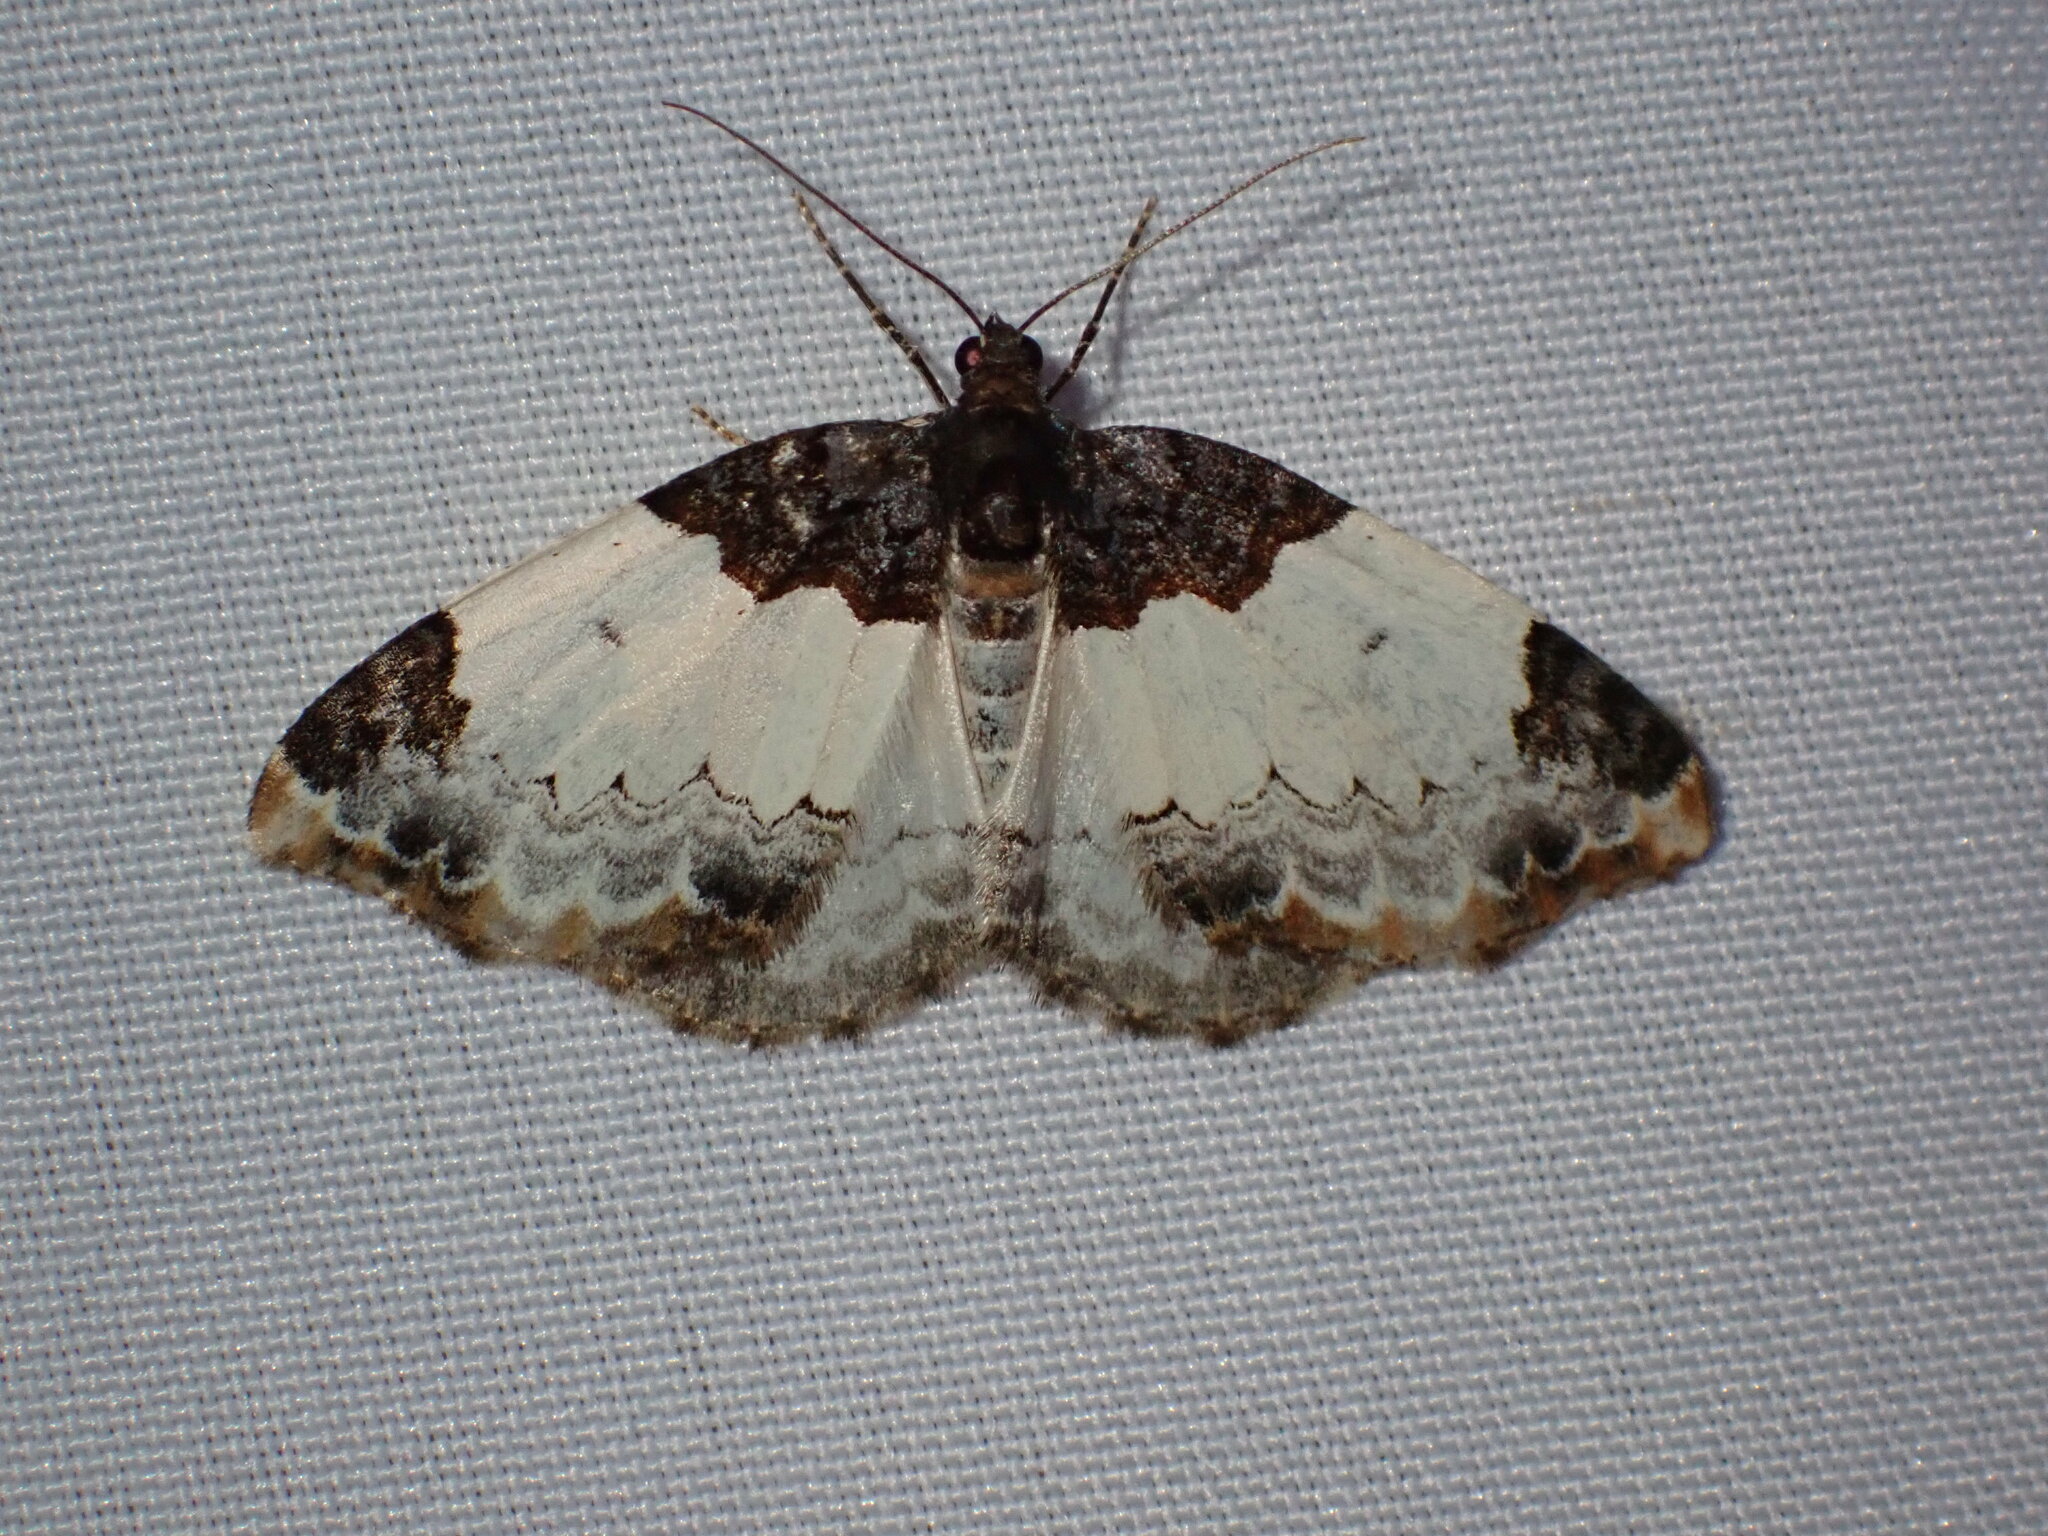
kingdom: Animalia
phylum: Arthropoda
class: Insecta
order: Lepidoptera
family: Geometridae
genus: Mesoleuca
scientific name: Mesoleuca ruficillata
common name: White-ribboned carpet moth
